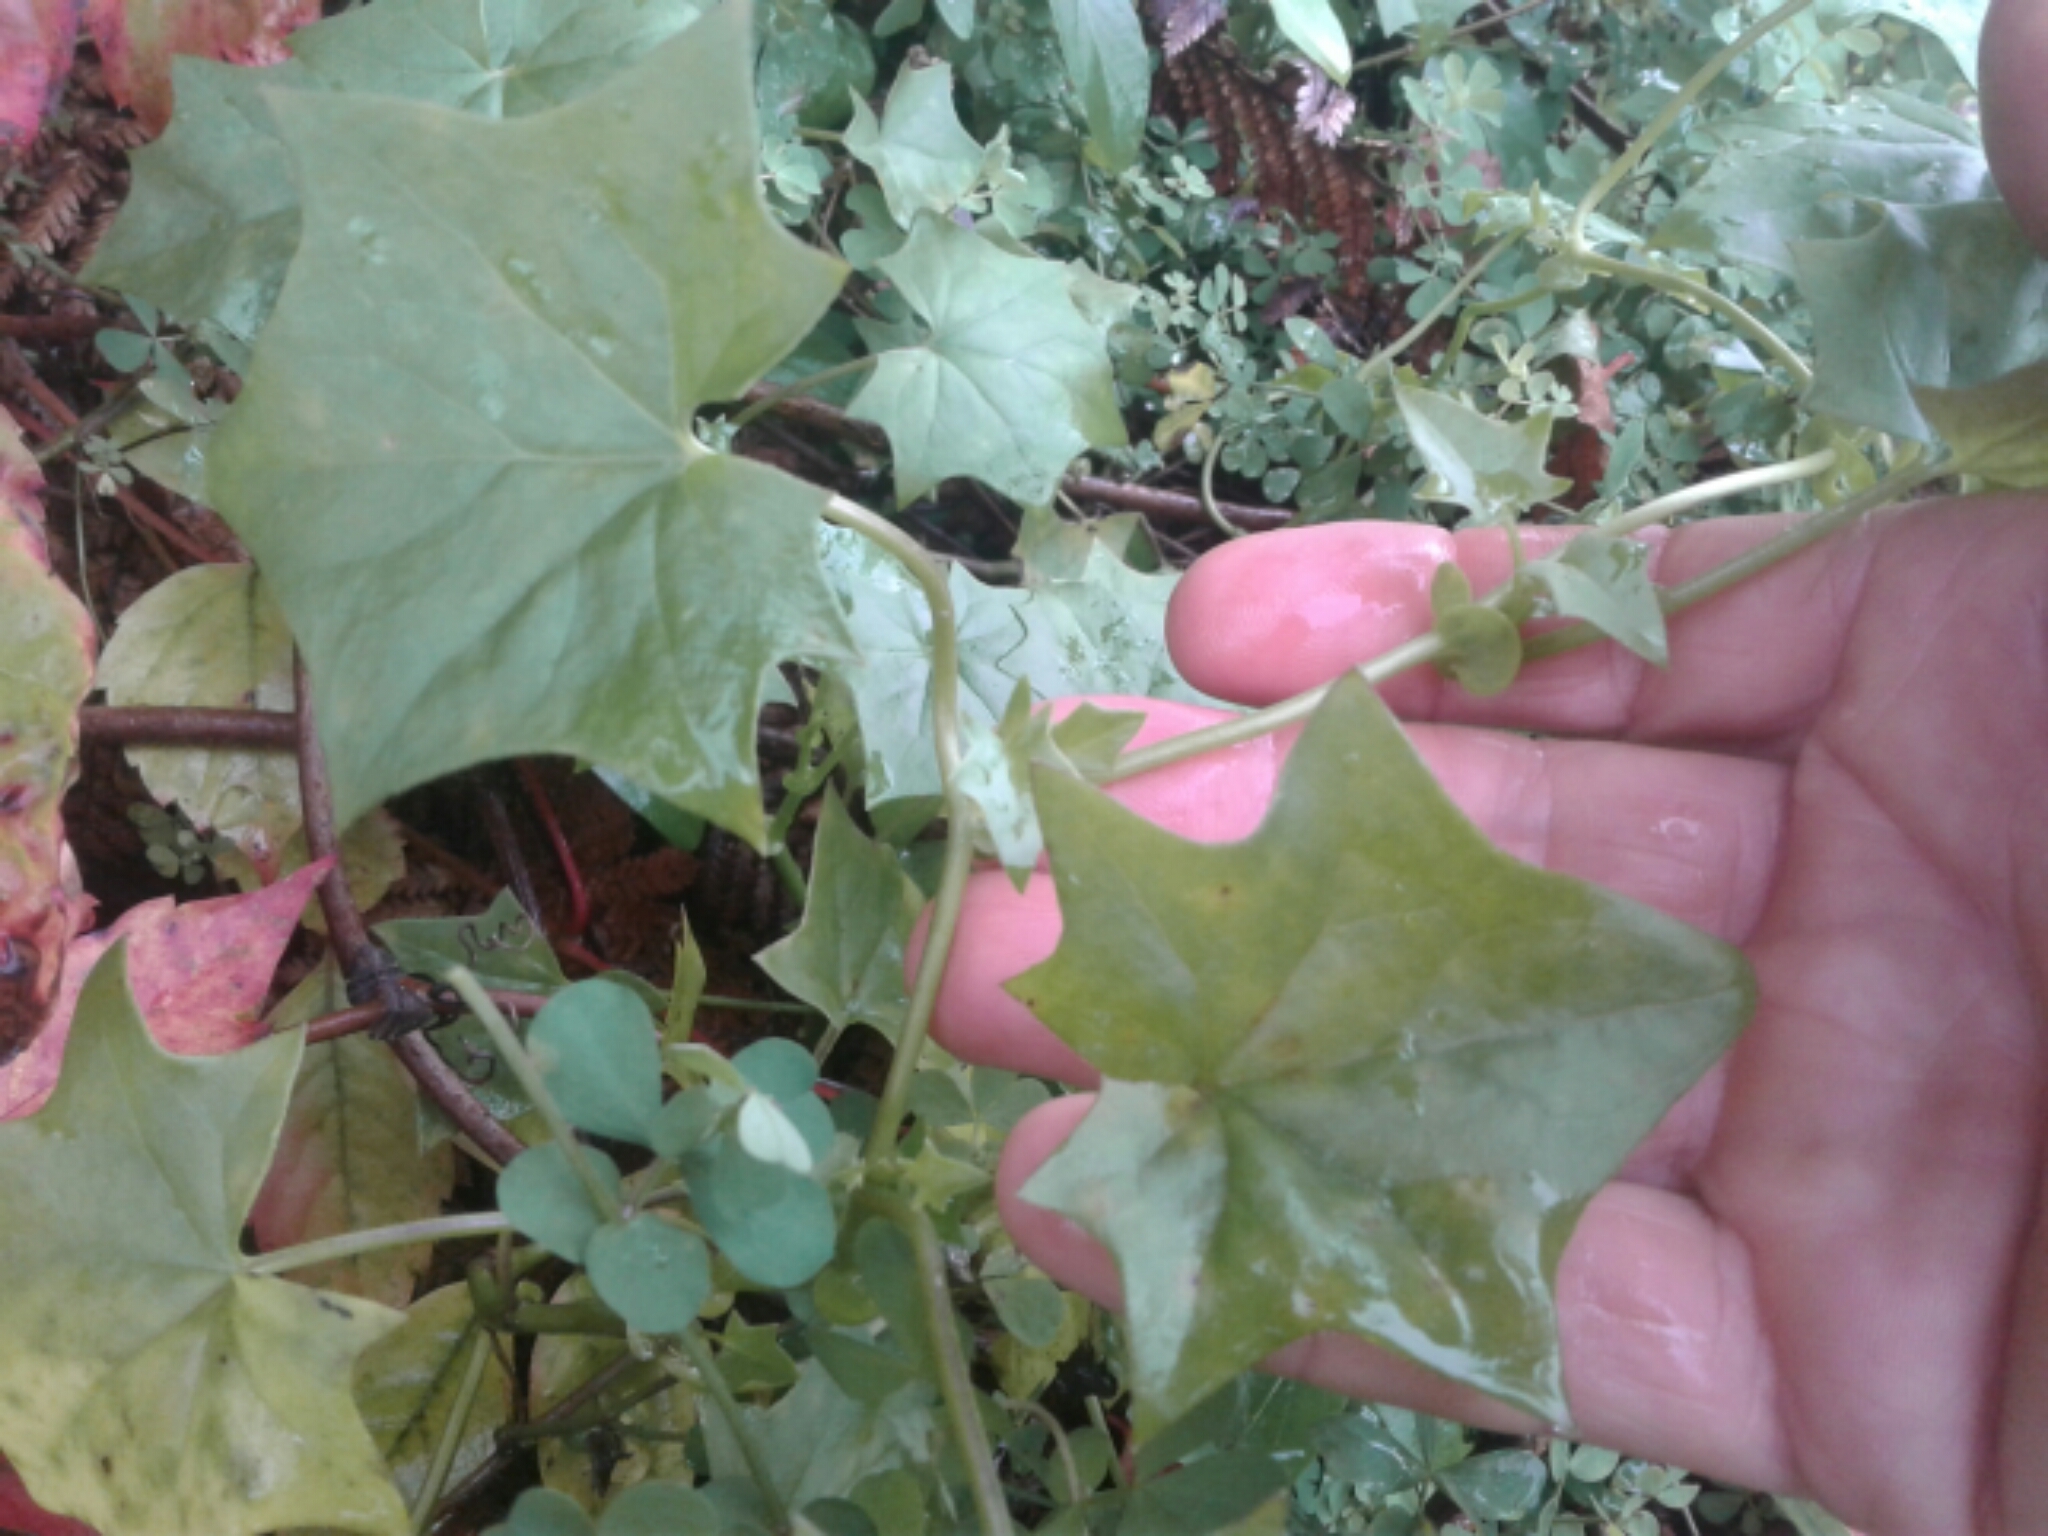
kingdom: Plantae
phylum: Tracheophyta
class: Magnoliopsida
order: Asterales
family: Asteraceae
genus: Delairea
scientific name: Delairea odorata
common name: Cape-ivy
